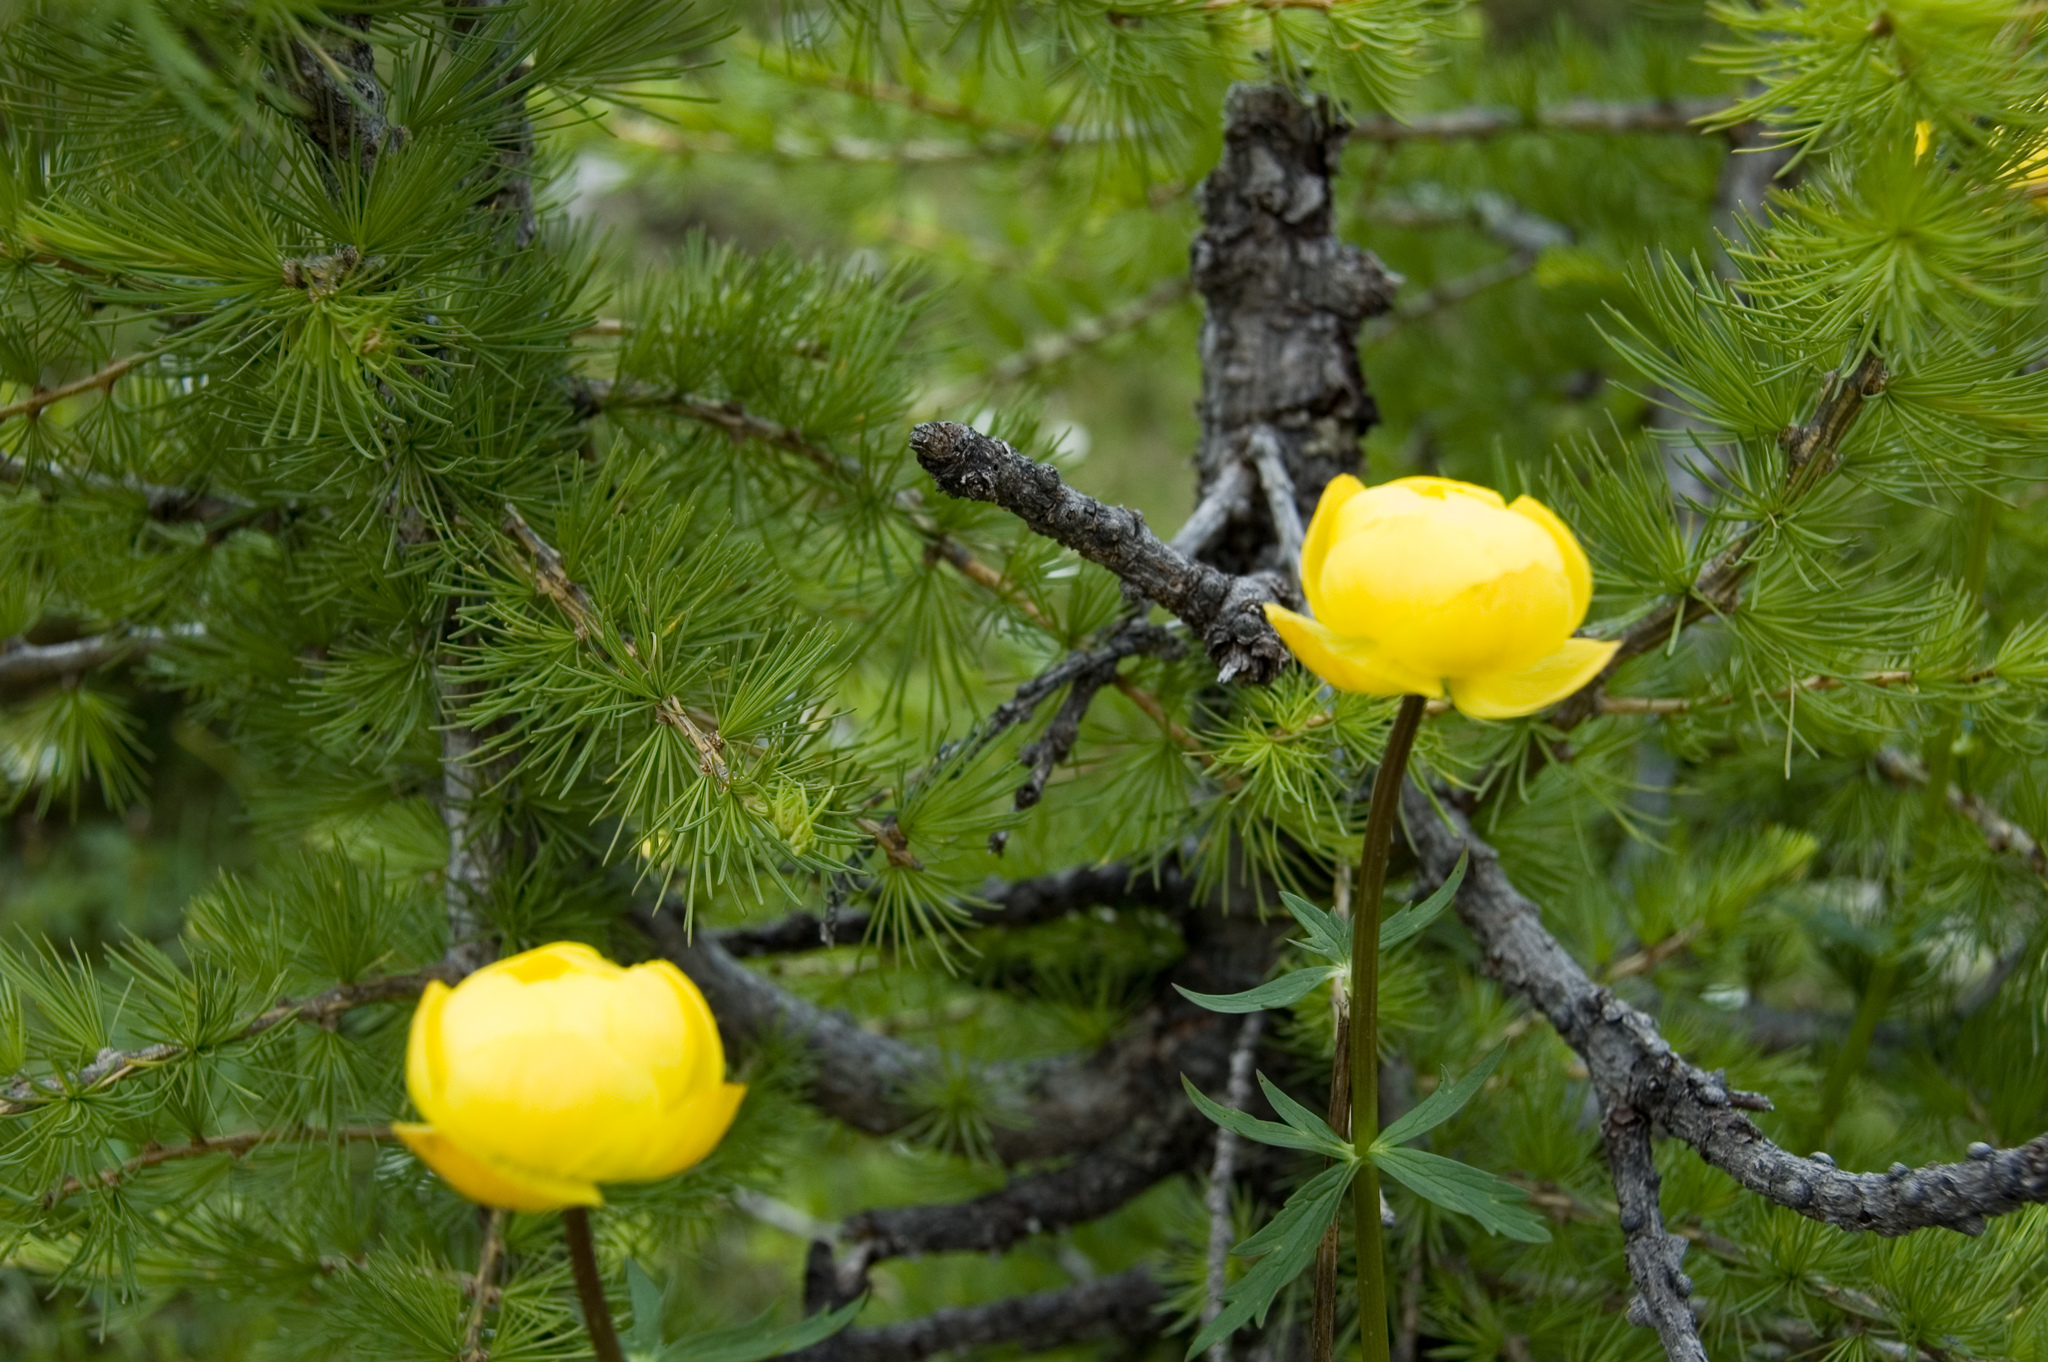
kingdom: Plantae
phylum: Tracheophyta
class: Magnoliopsida
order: Ranunculales
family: Ranunculaceae
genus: Trollius
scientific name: Trollius europaeus
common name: European globeflower
